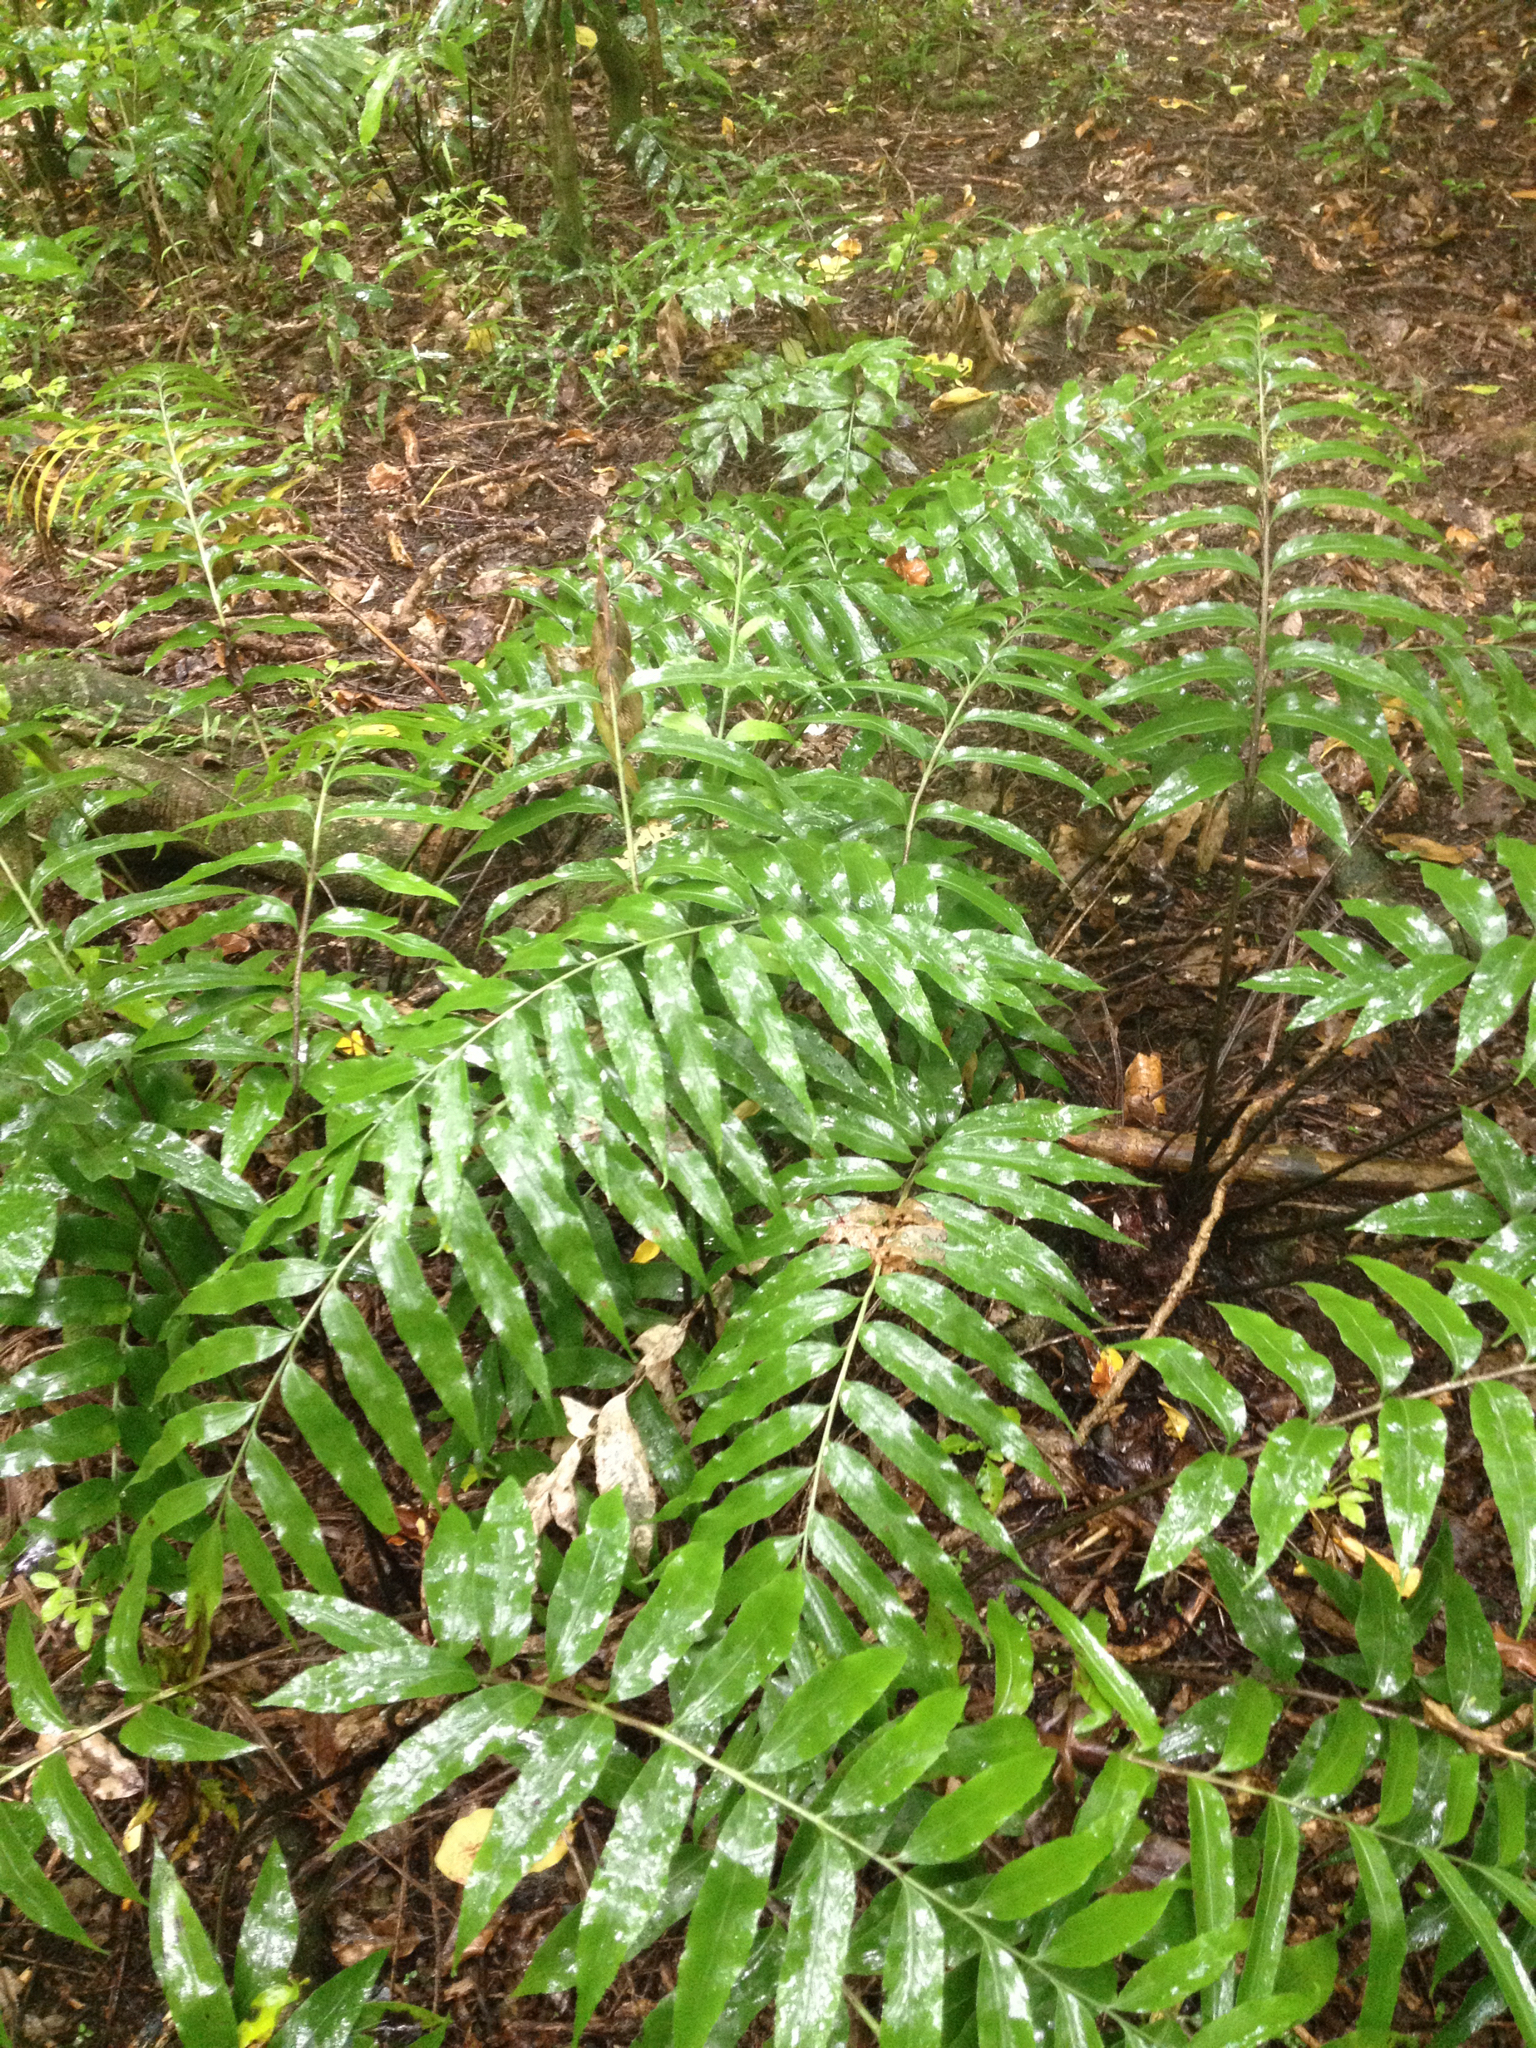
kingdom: Plantae
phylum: Tracheophyta
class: Polypodiopsida
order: Polypodiales
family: Aspleniaceae
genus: Asplenium
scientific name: Asplenium oblongifolium
